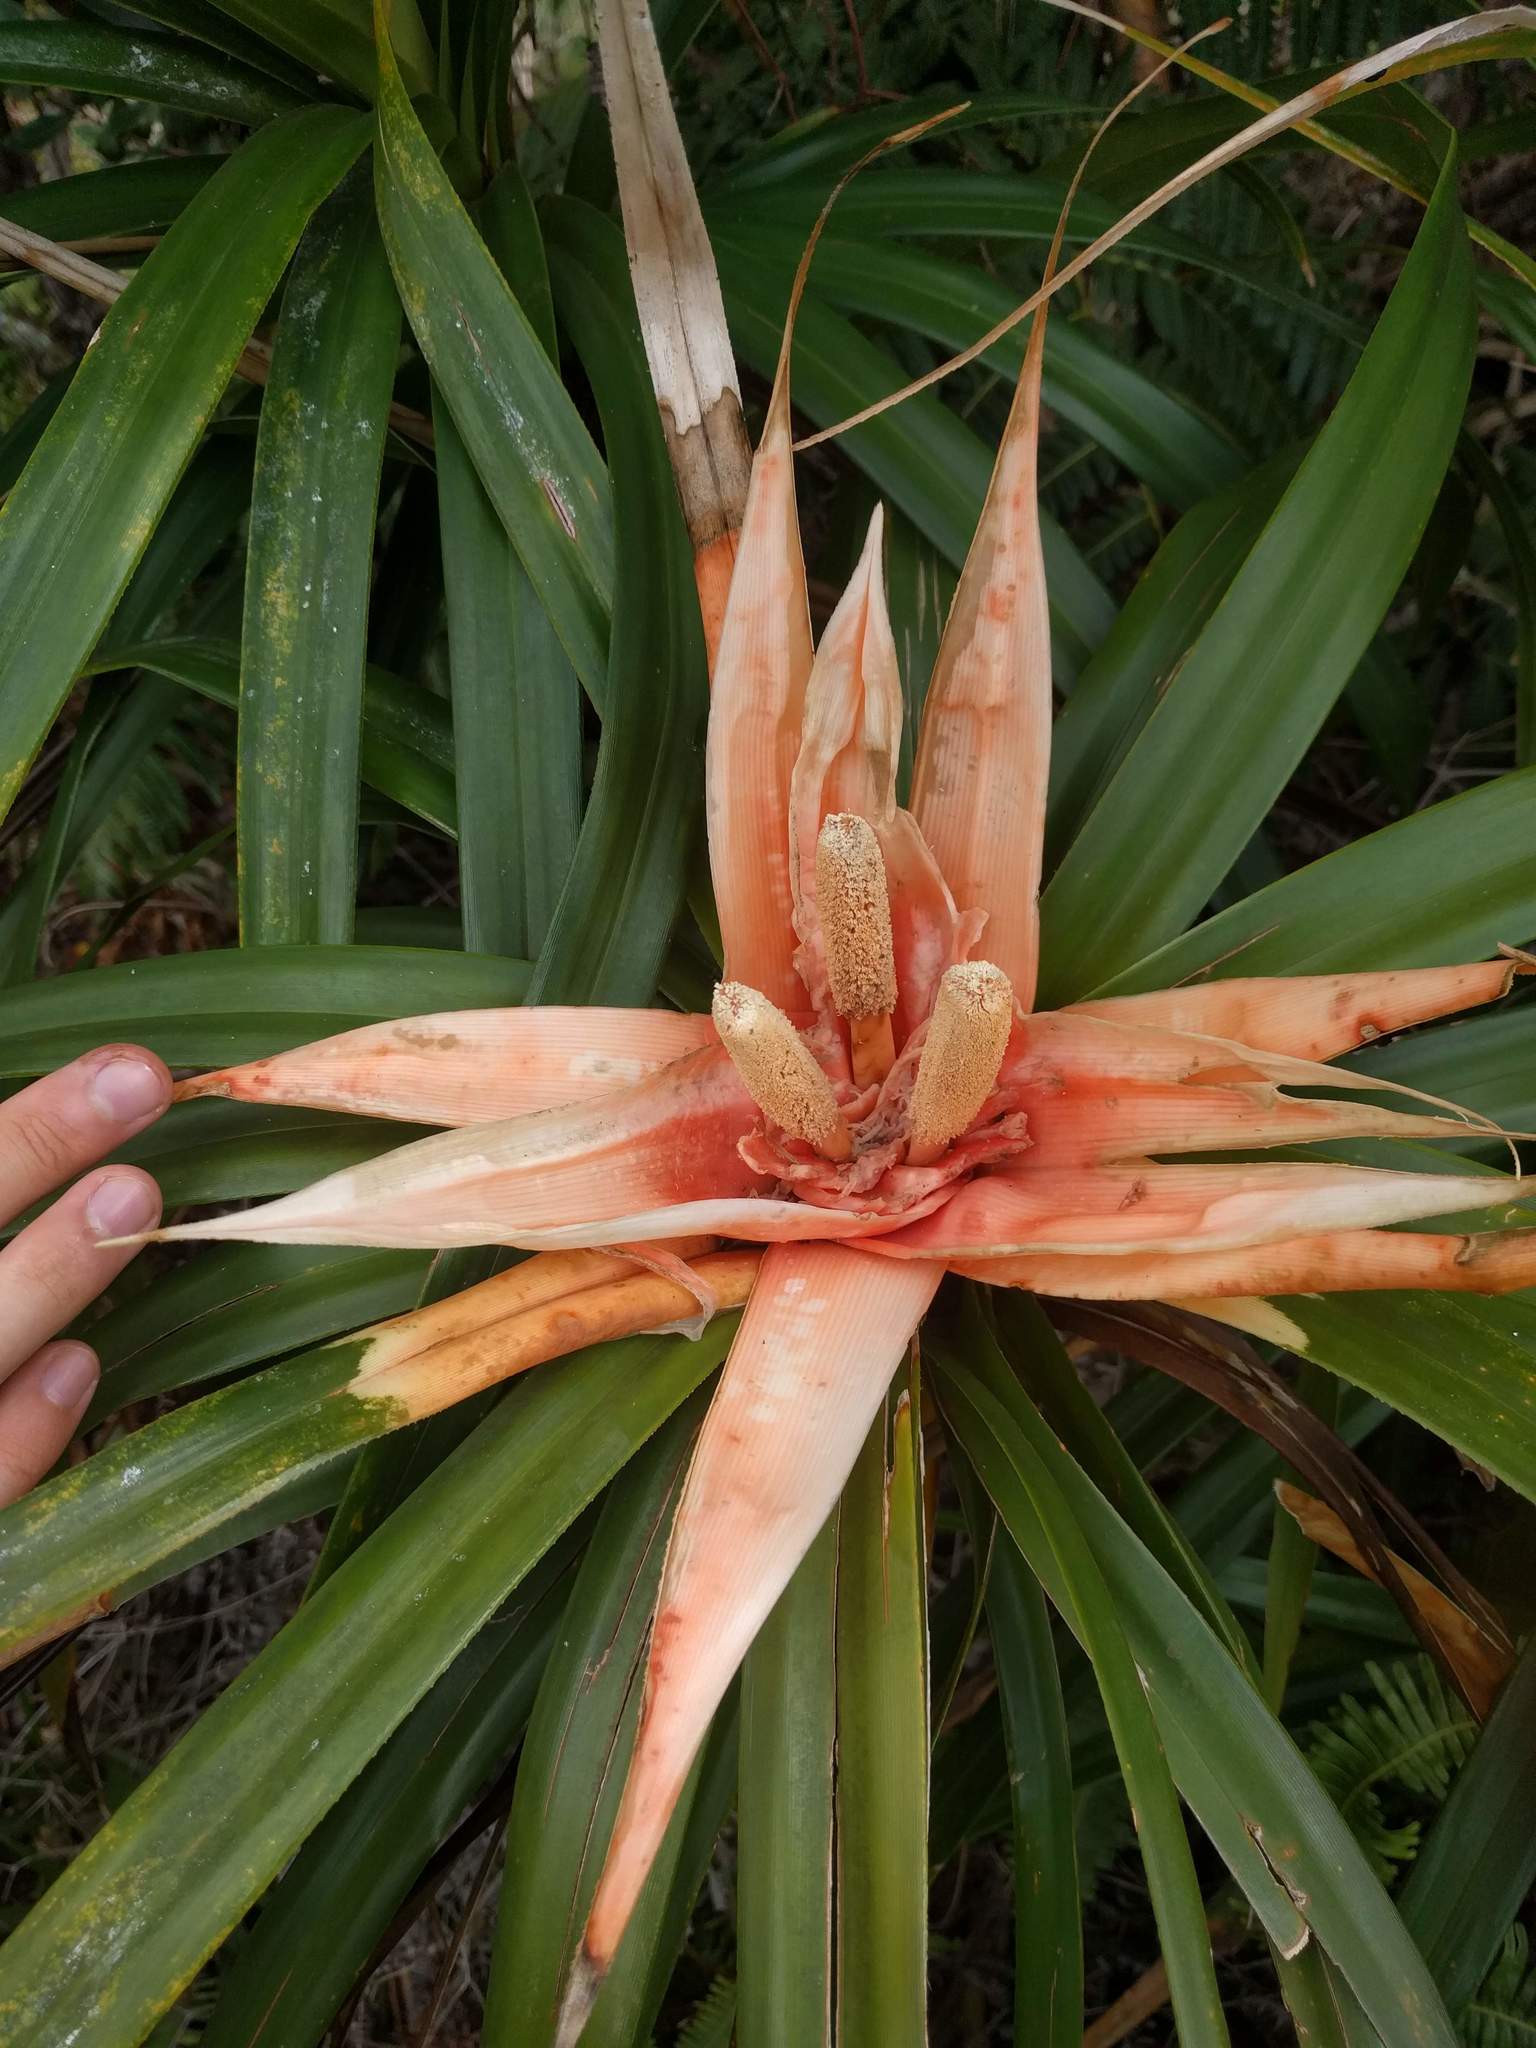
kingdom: Plantae
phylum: Tracheophyta
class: Liliopsida
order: Pandanales
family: Pandanaceae
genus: Freycinetia
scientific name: Freycinetia arborea
